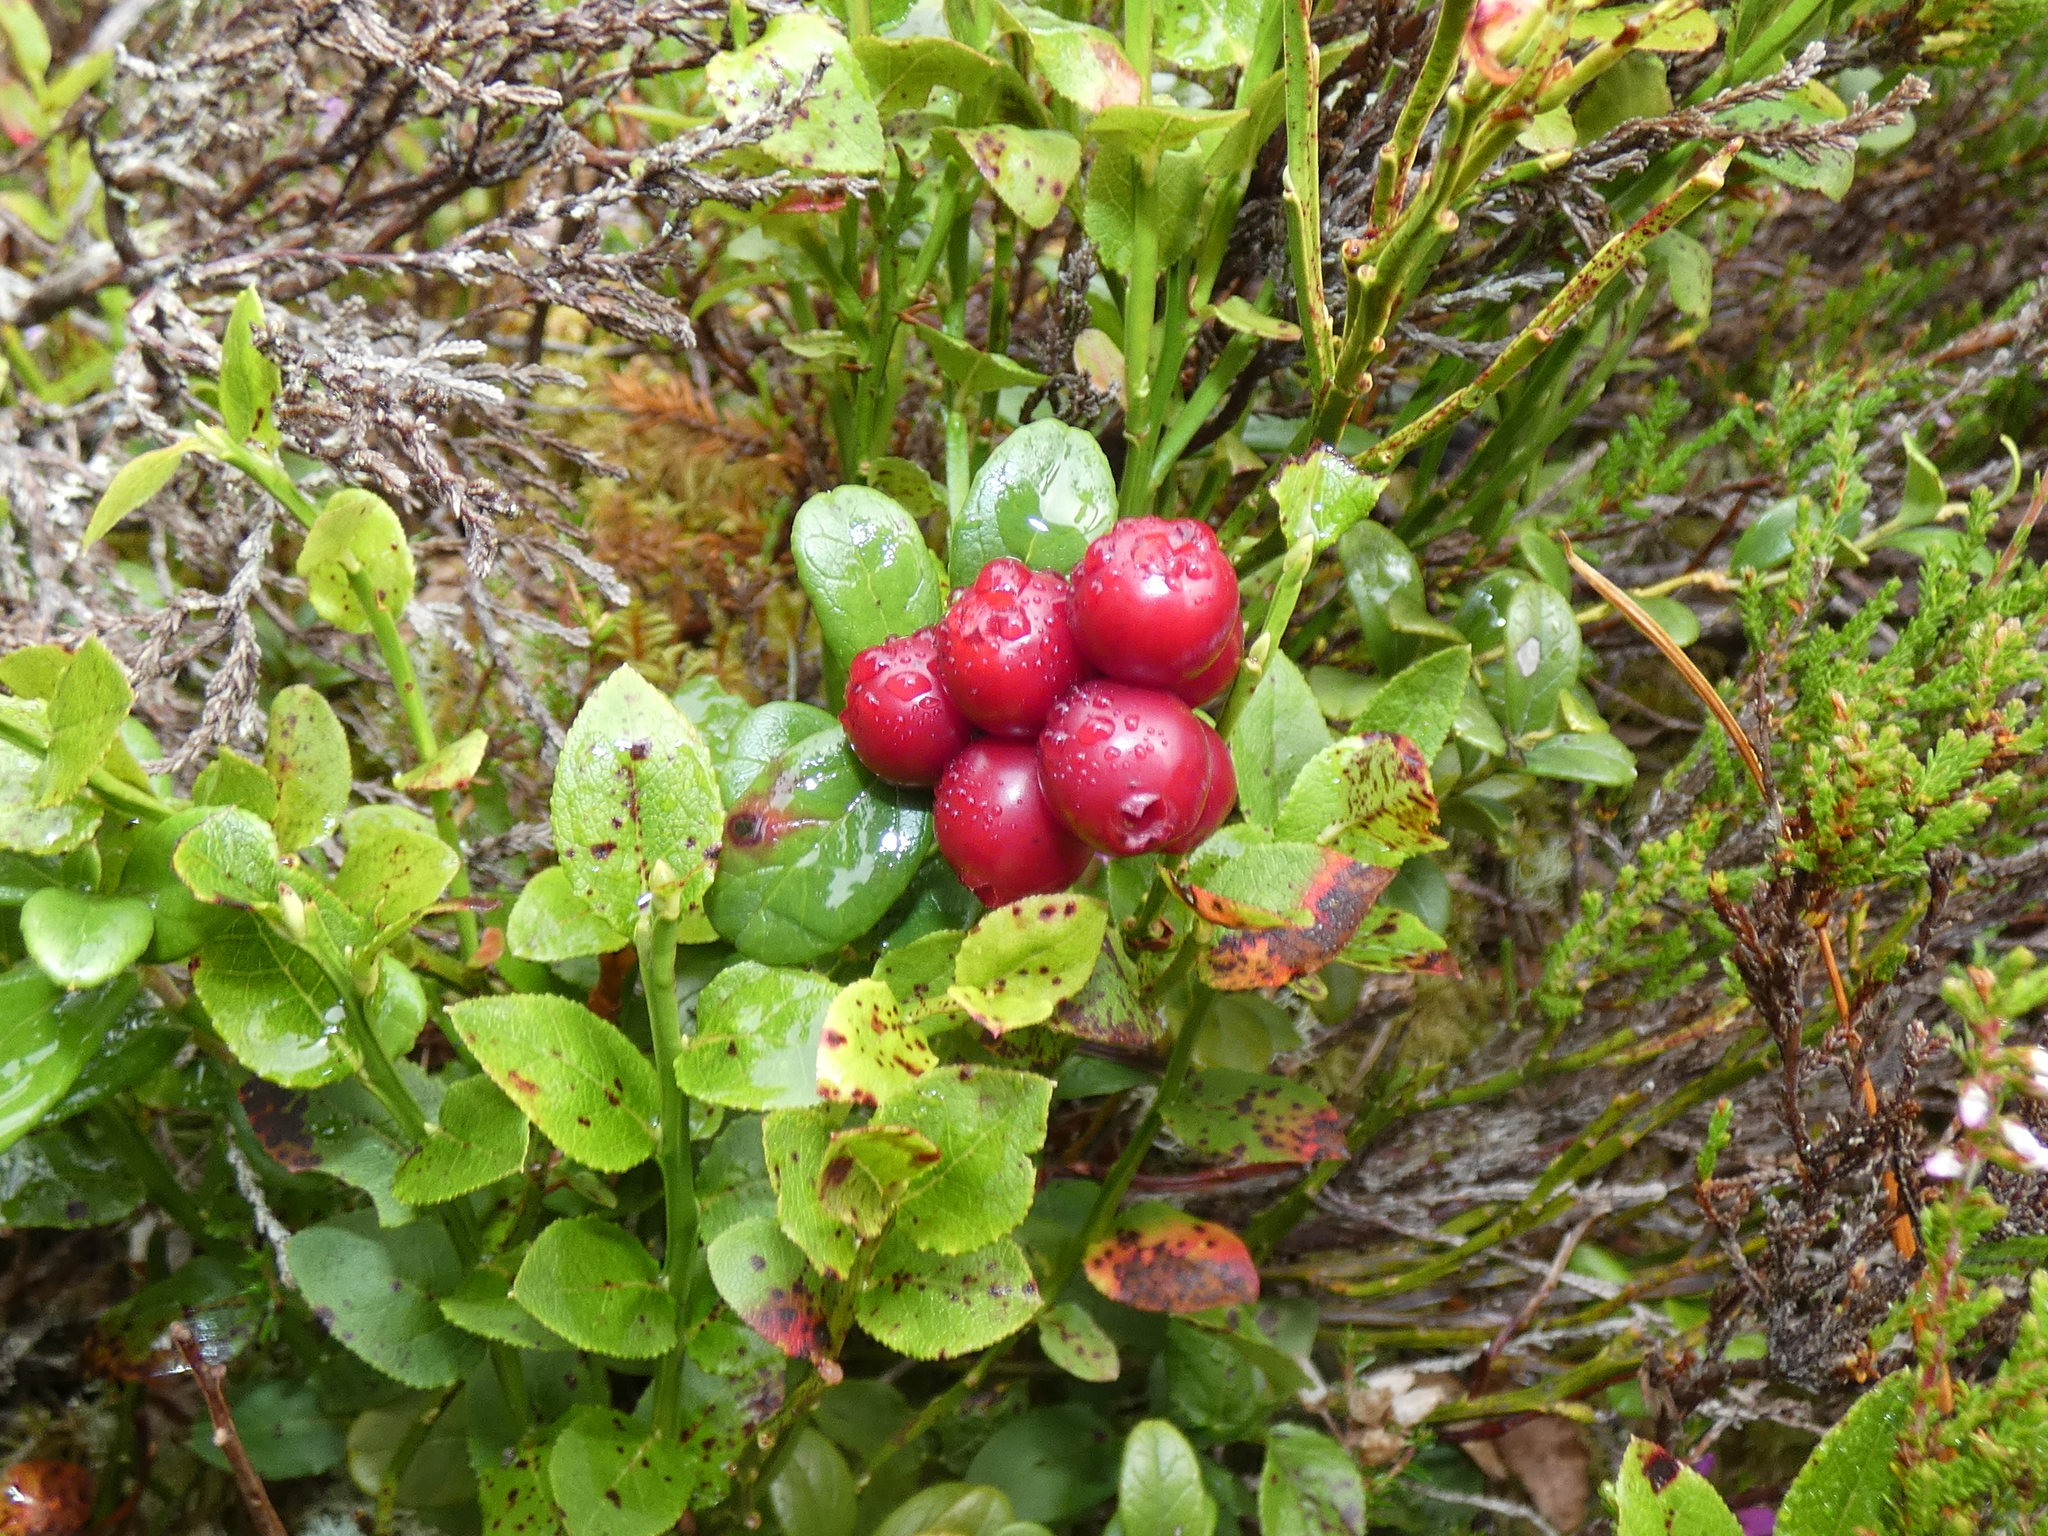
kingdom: Plantae
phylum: Tracheophyta
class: Magnoliopsida
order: Ericales
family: Ericaceae
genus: Vaccinium
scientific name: Vaccinium vitis-idaea
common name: Cowberry
